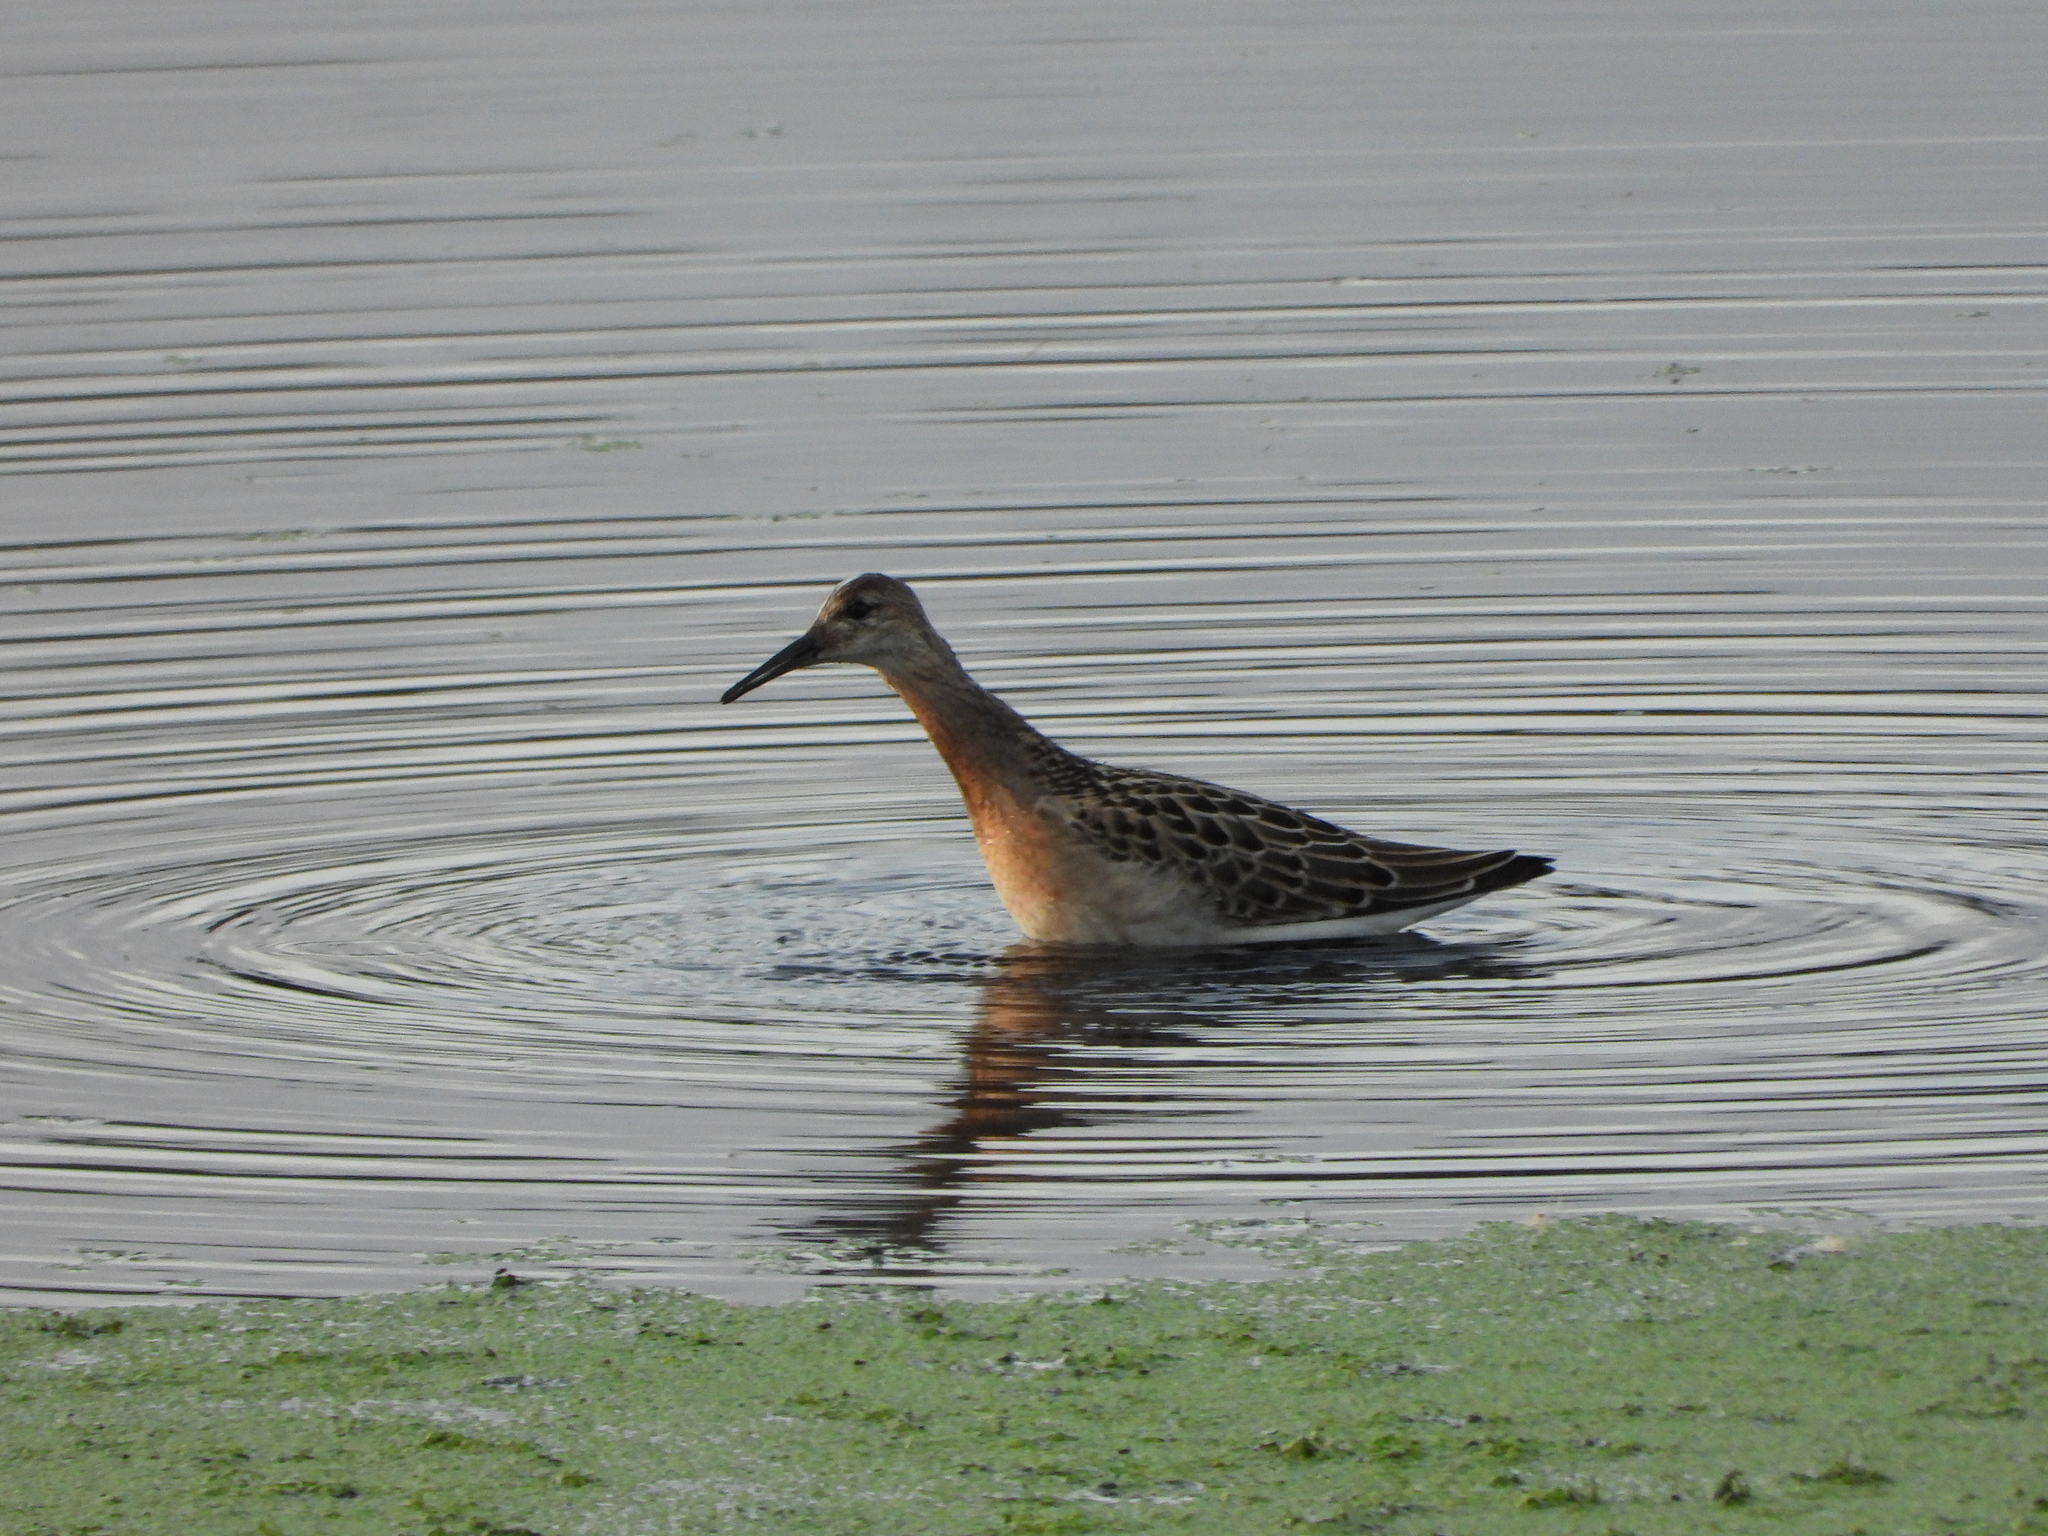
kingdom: Animalia
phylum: Chordata
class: Aves
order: Charadriiformes
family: Scolopacidae
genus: Calidris
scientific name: Calidris pugnax
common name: Ruff
